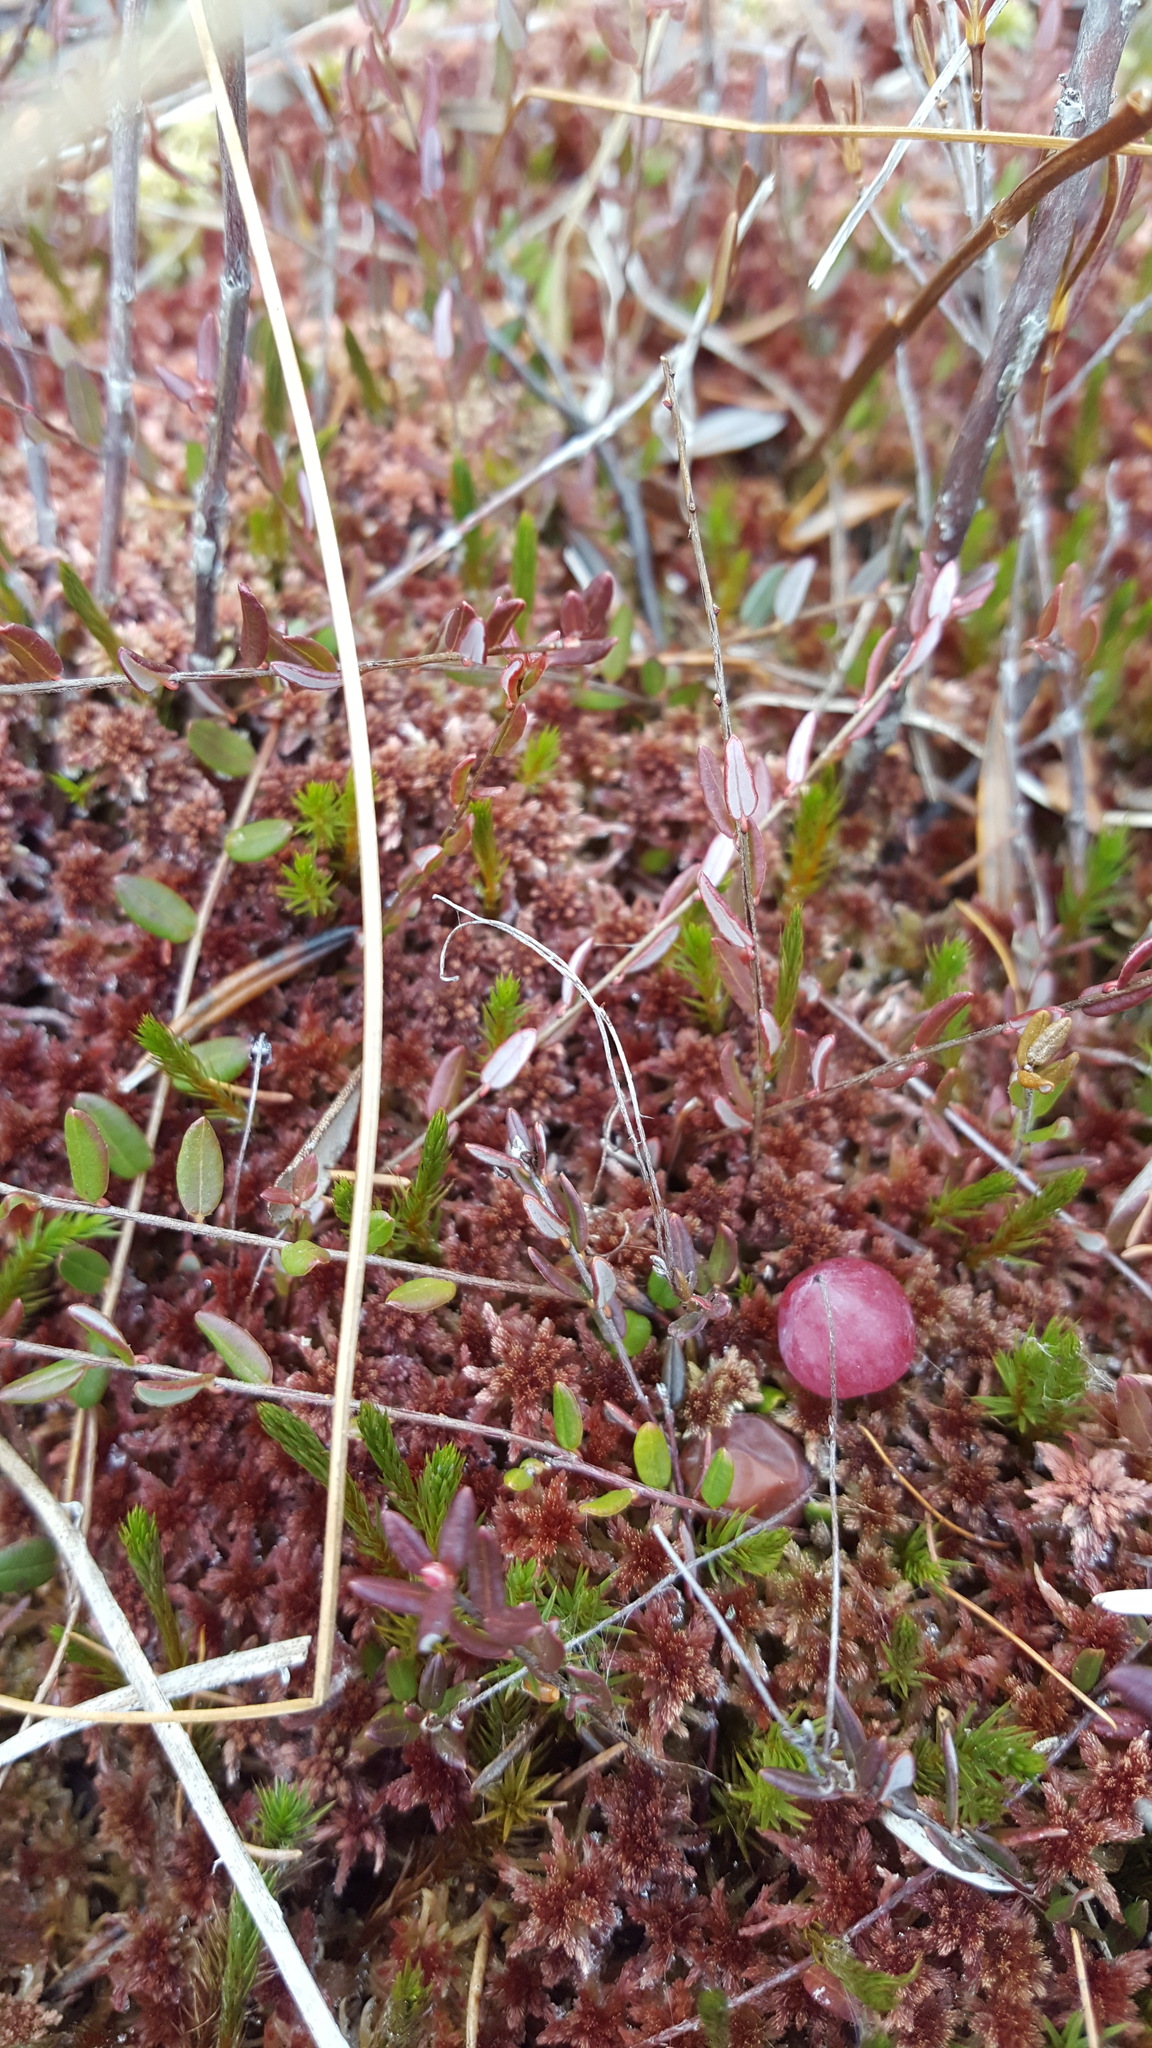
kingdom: Plantae
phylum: Tracheophyta
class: Magnoliopsida
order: Ericales
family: Ericaceae
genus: Vaccinium
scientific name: Vaccinium oxycoccos
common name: Cranberry
